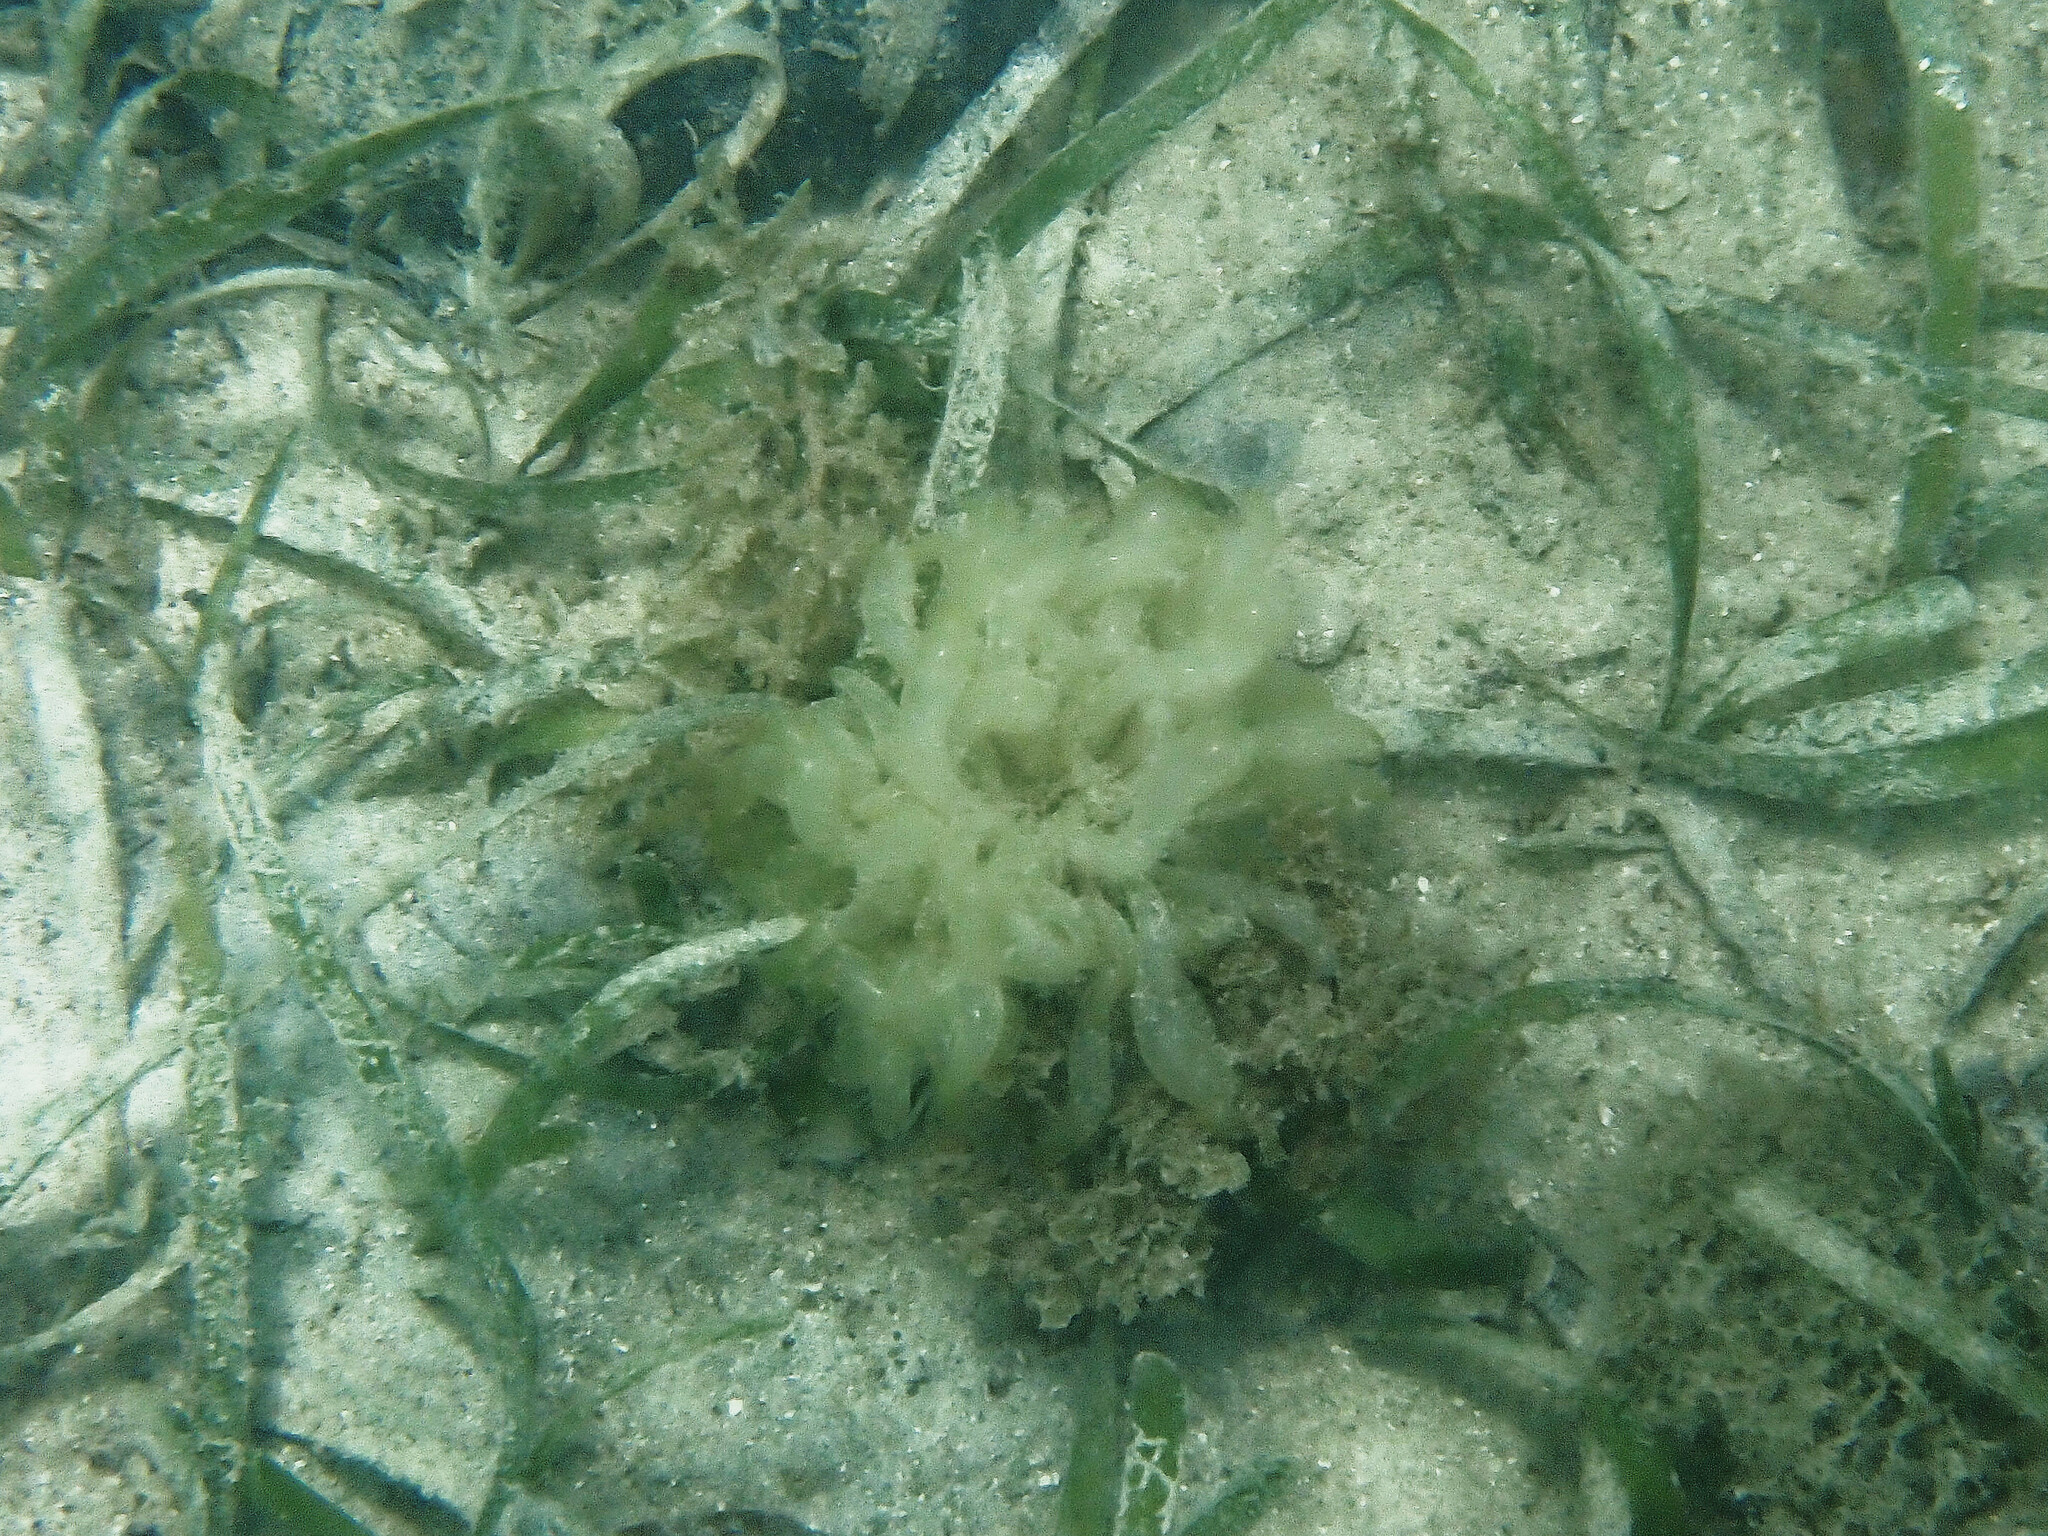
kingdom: Plantae
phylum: Chlorophyta
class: Ulvophyceae
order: Siphonocladales
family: Siphonocladaceae
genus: Boergesenia
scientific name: Boergesenia forbesii
